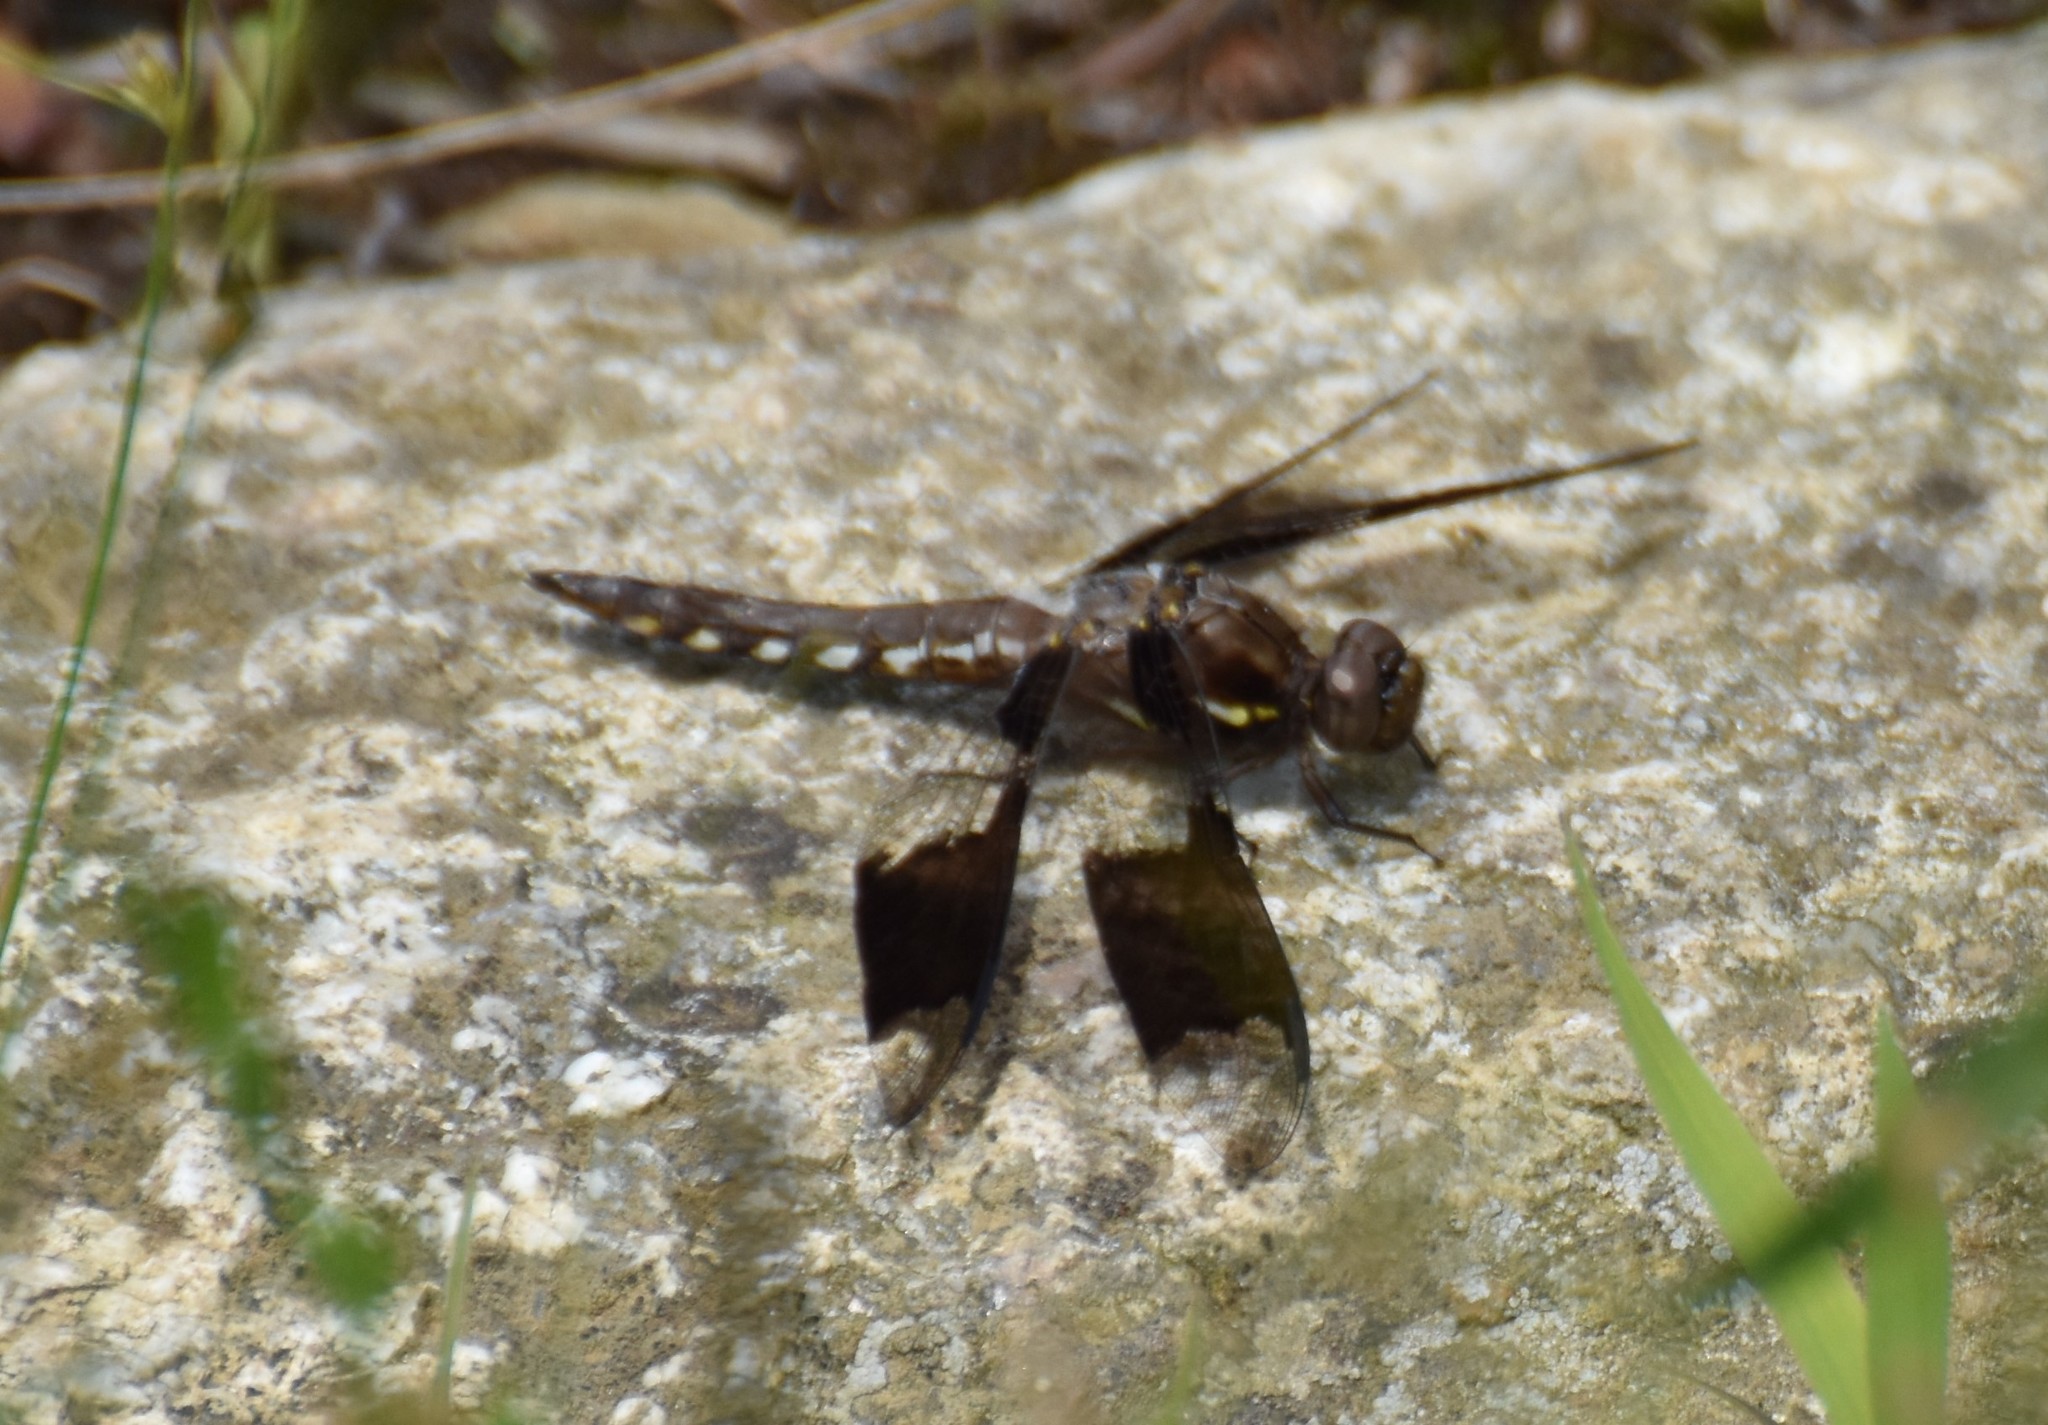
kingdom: Animalia
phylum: Arthropoda
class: Insecta
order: Odonata
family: Libellulidae
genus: Plathemis
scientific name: Plathemis lydia
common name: Common whitetail
